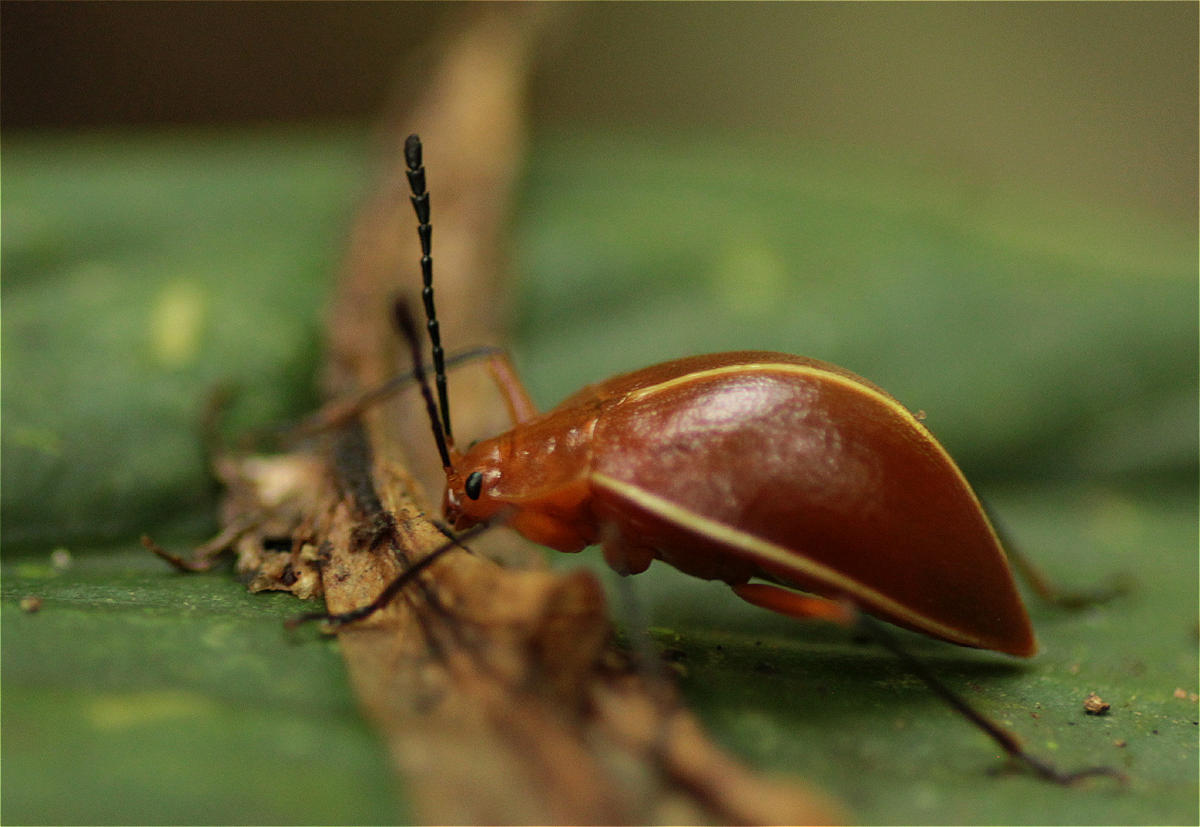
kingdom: Animalia
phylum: Arthropoda
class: Insecta
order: Coleoptera
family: Erotylidae
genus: Ellipticus
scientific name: Ellipticus
